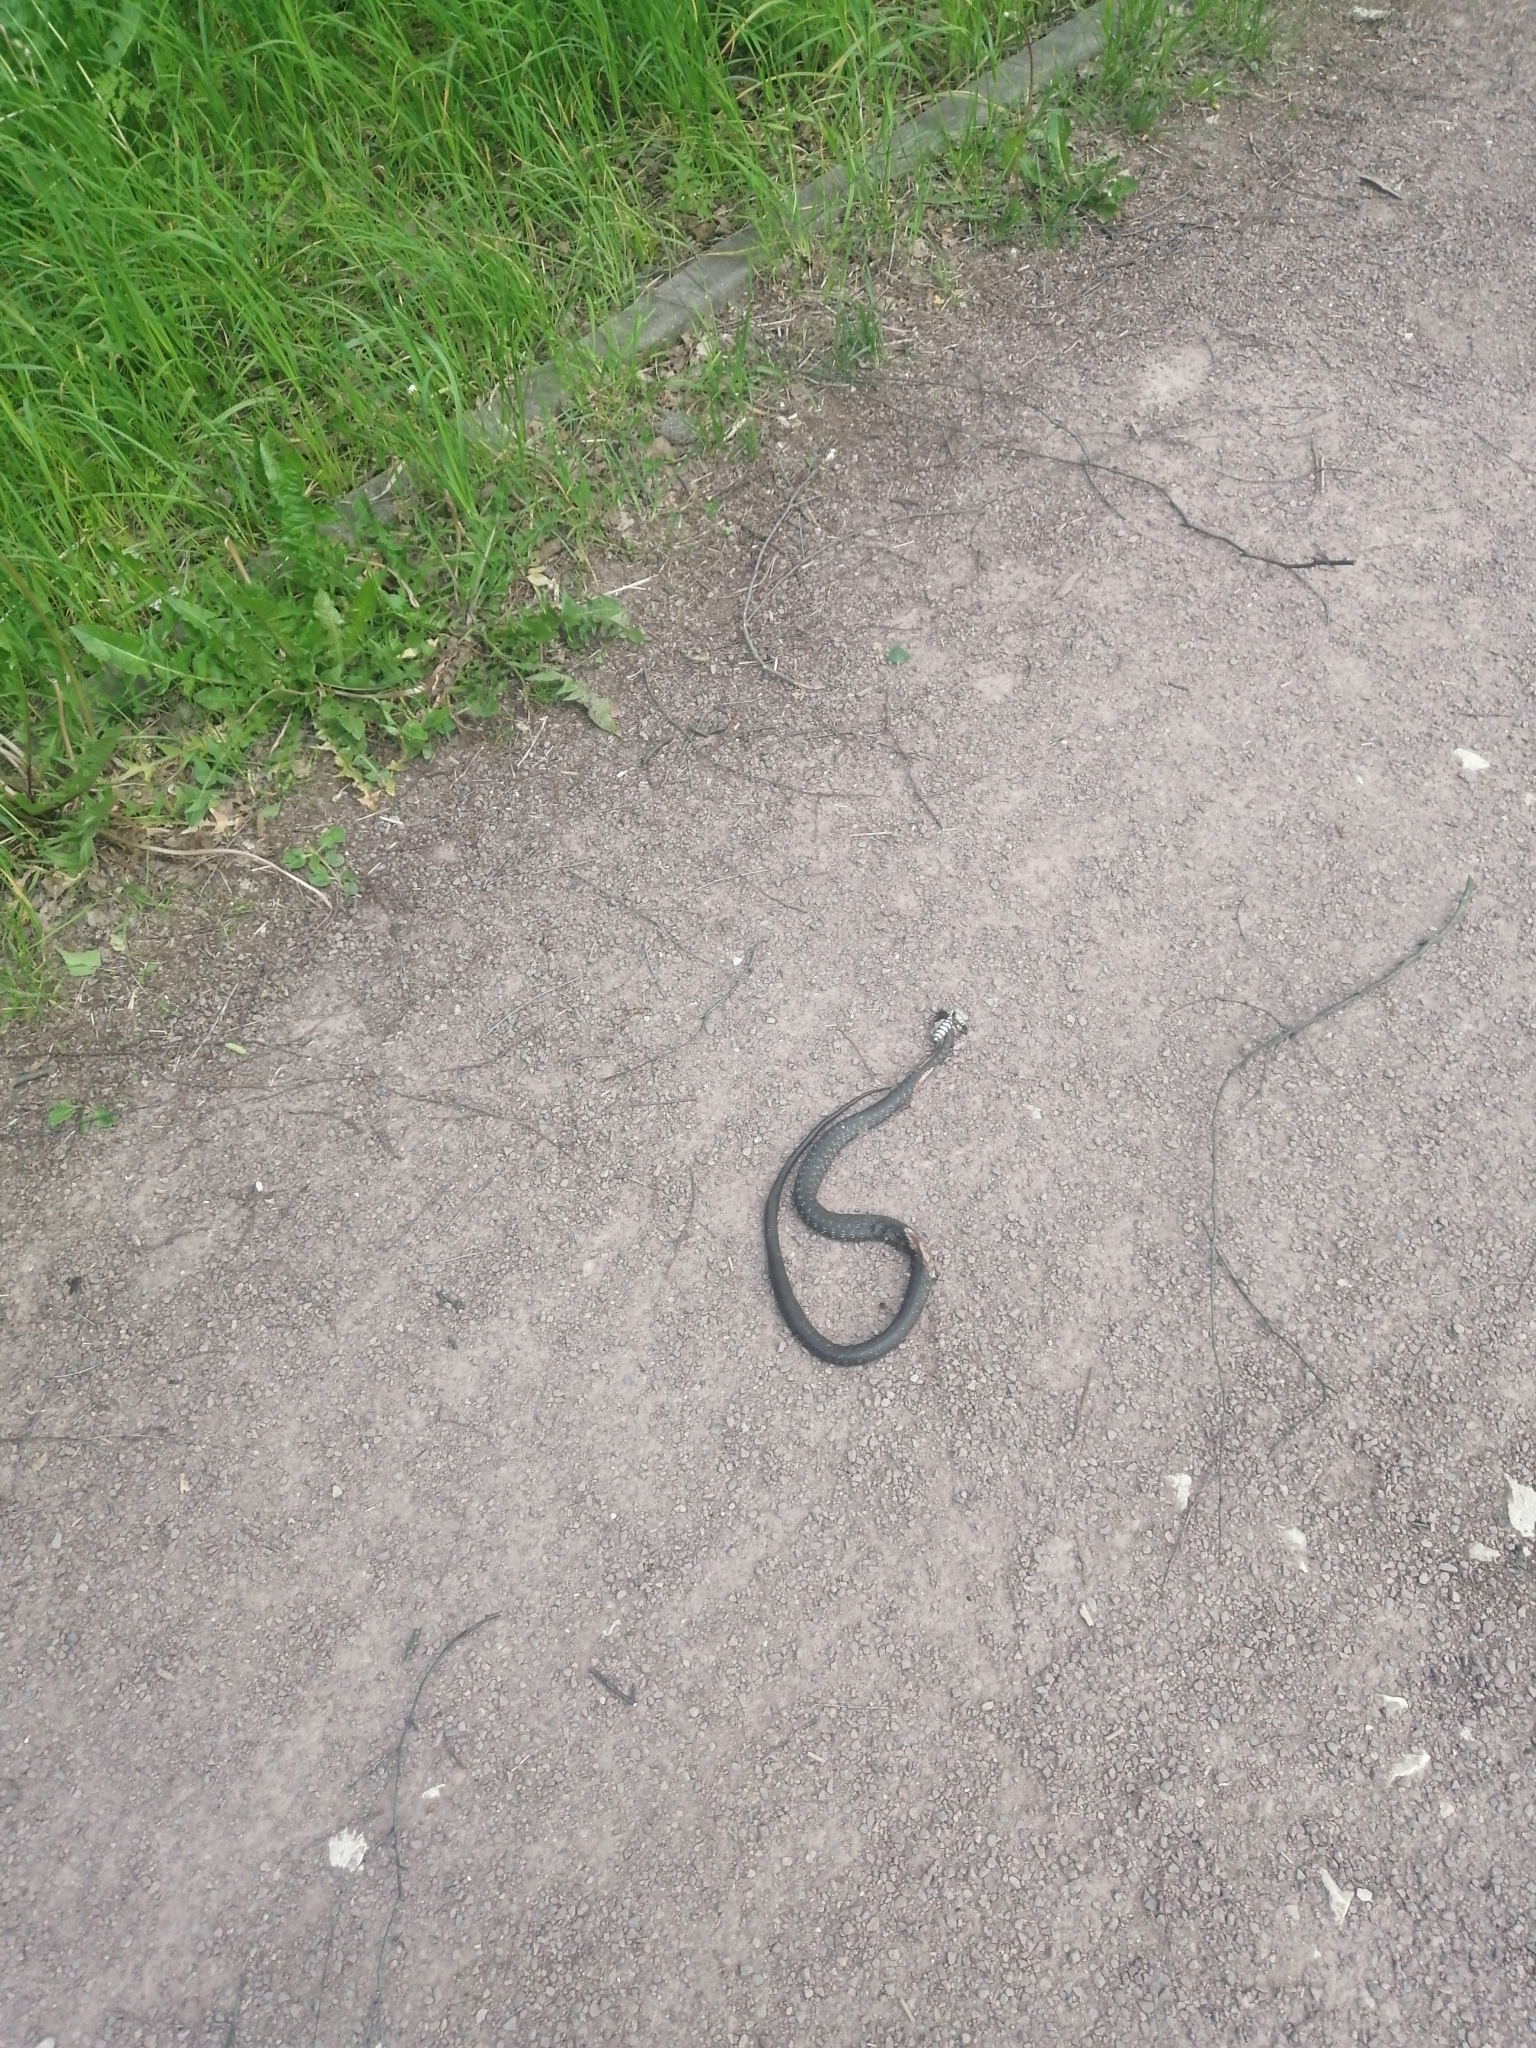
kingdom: Animalia
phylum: Chordata
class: Squamata
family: Colubridae
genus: Natrix
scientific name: Natrix natrix
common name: Grass snake
